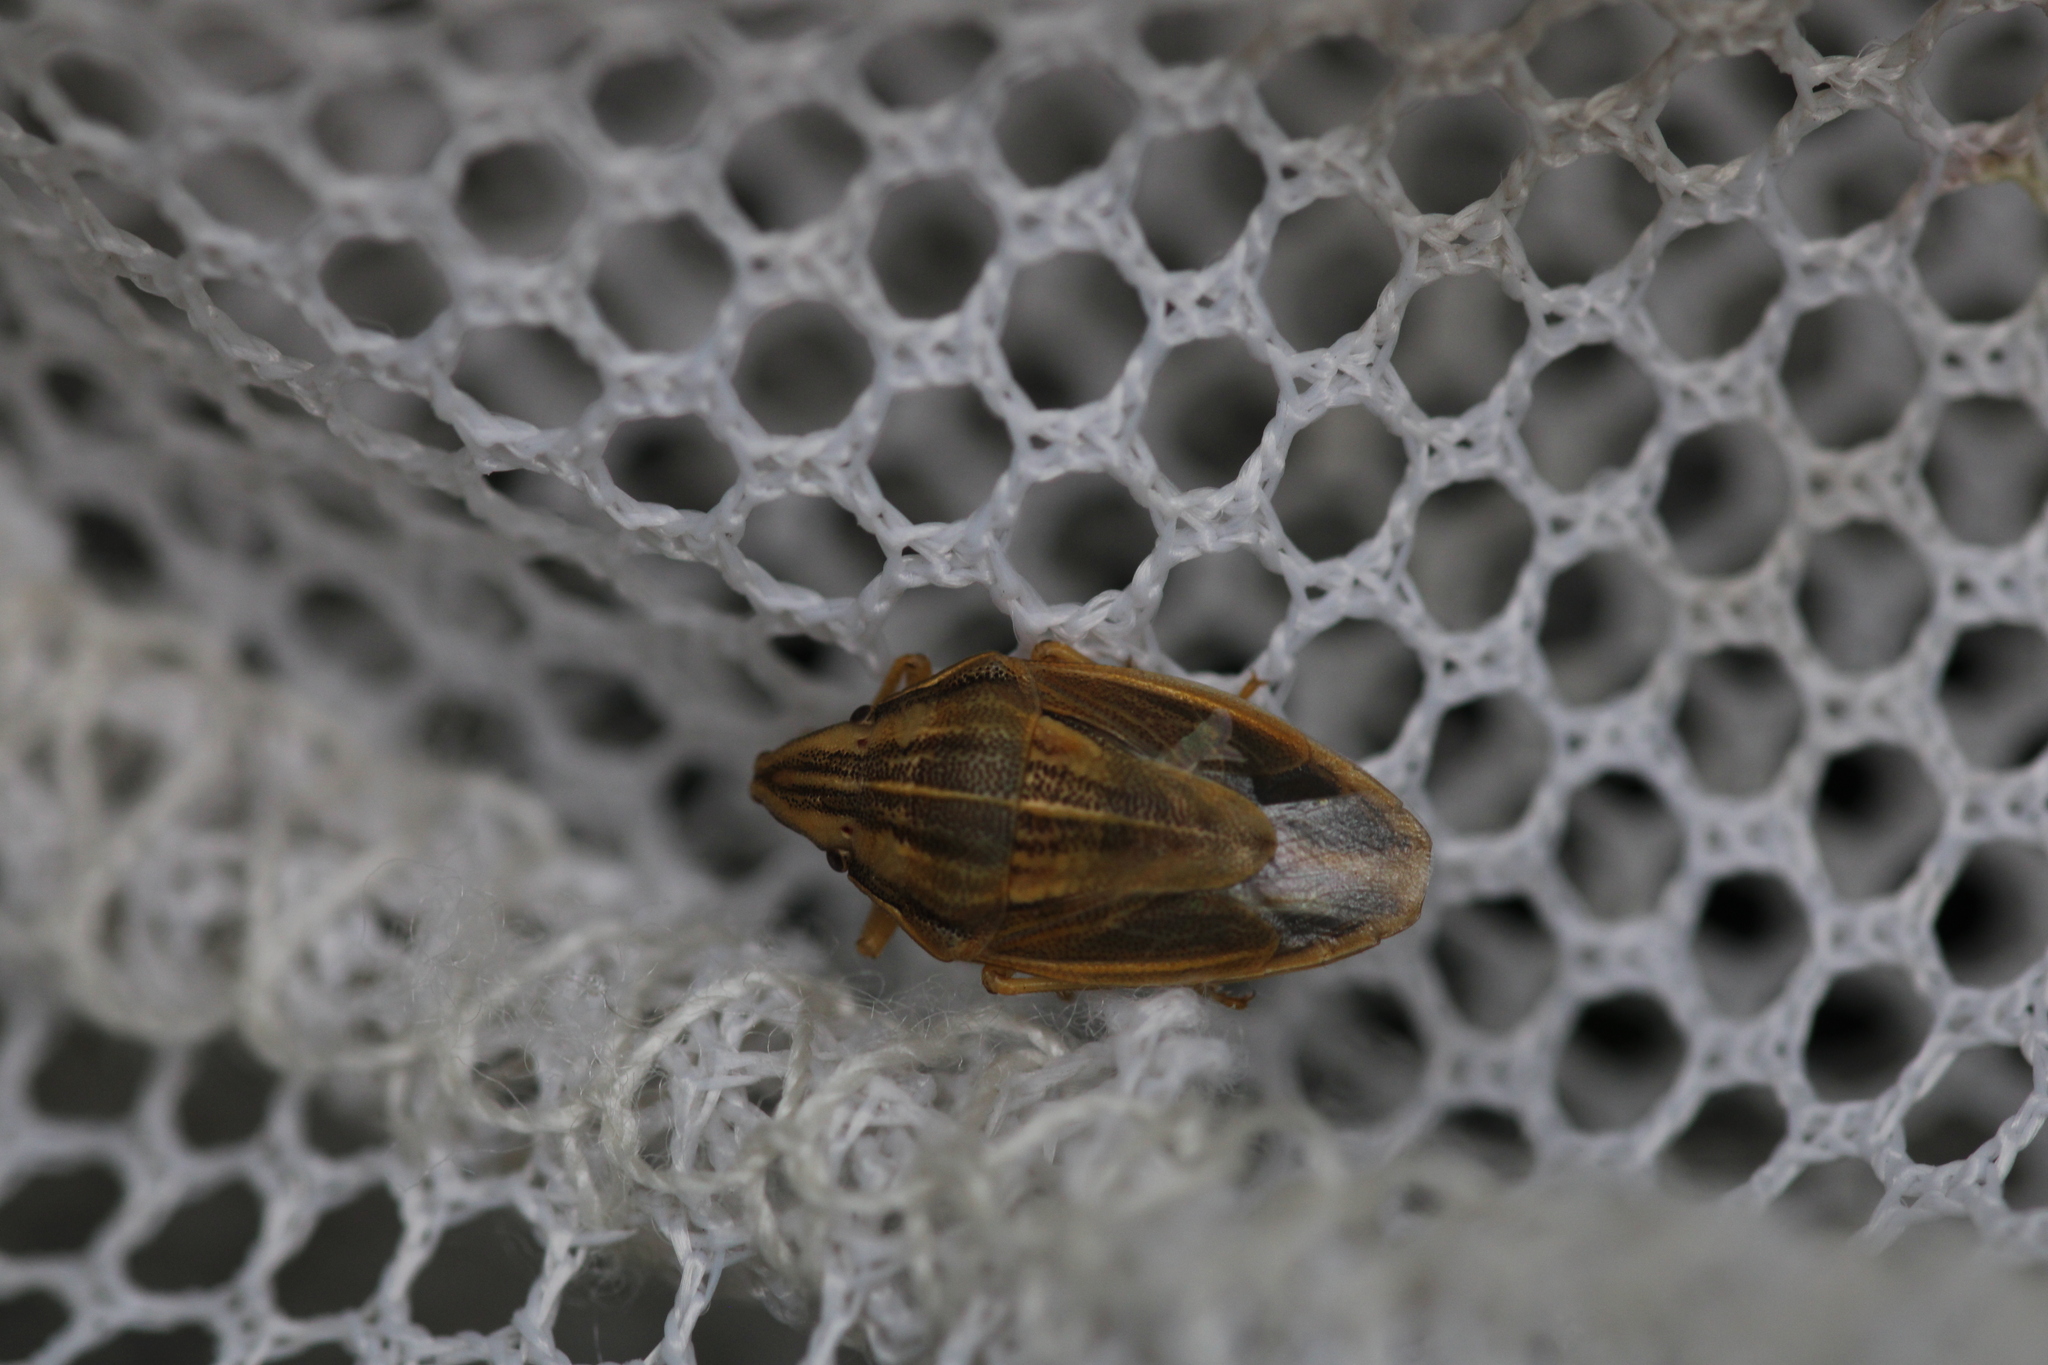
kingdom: Animalia
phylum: Arthropoda
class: Insecta
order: Hemiptera
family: Pentatomidae
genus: Aelia
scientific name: Aelia acuminata
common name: Bishop's mitre
